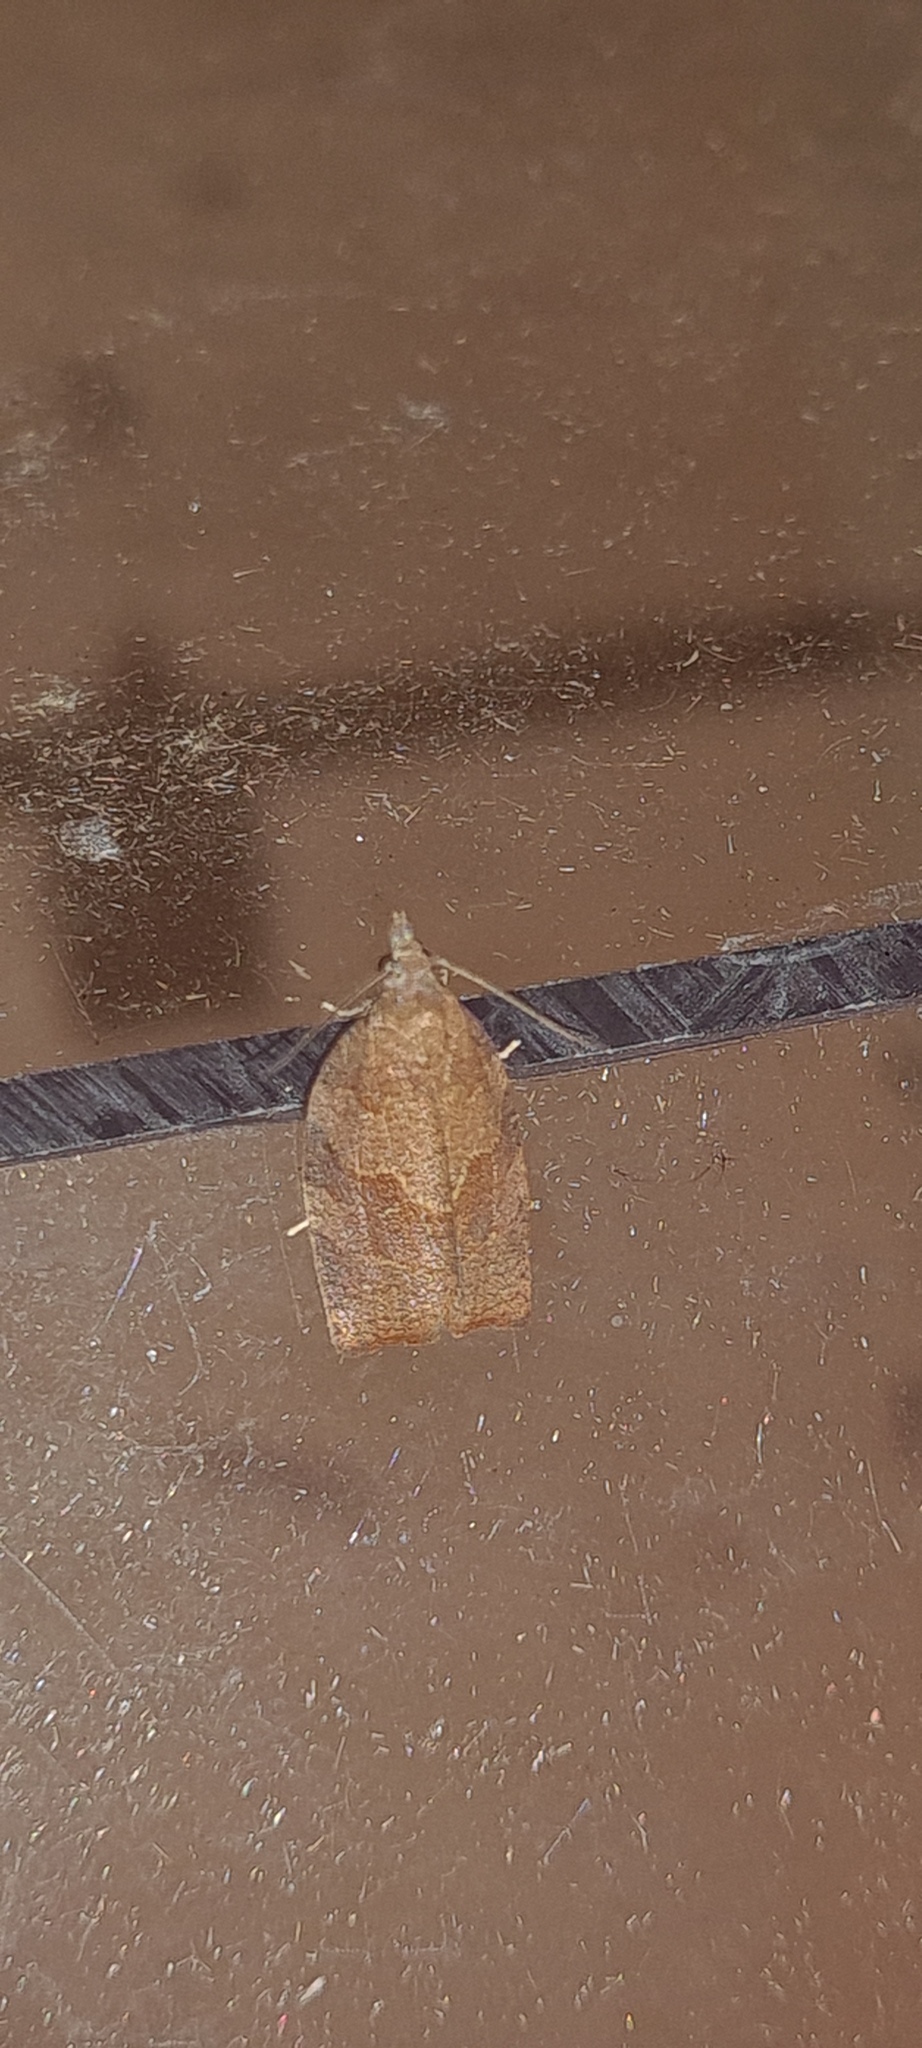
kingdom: Animalia
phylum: Arthropoda
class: Insecta
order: Lepidoptera
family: Tortricidae
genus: Pandemis
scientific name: Pandemis heparana
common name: Dark fruit-tree tortrix
